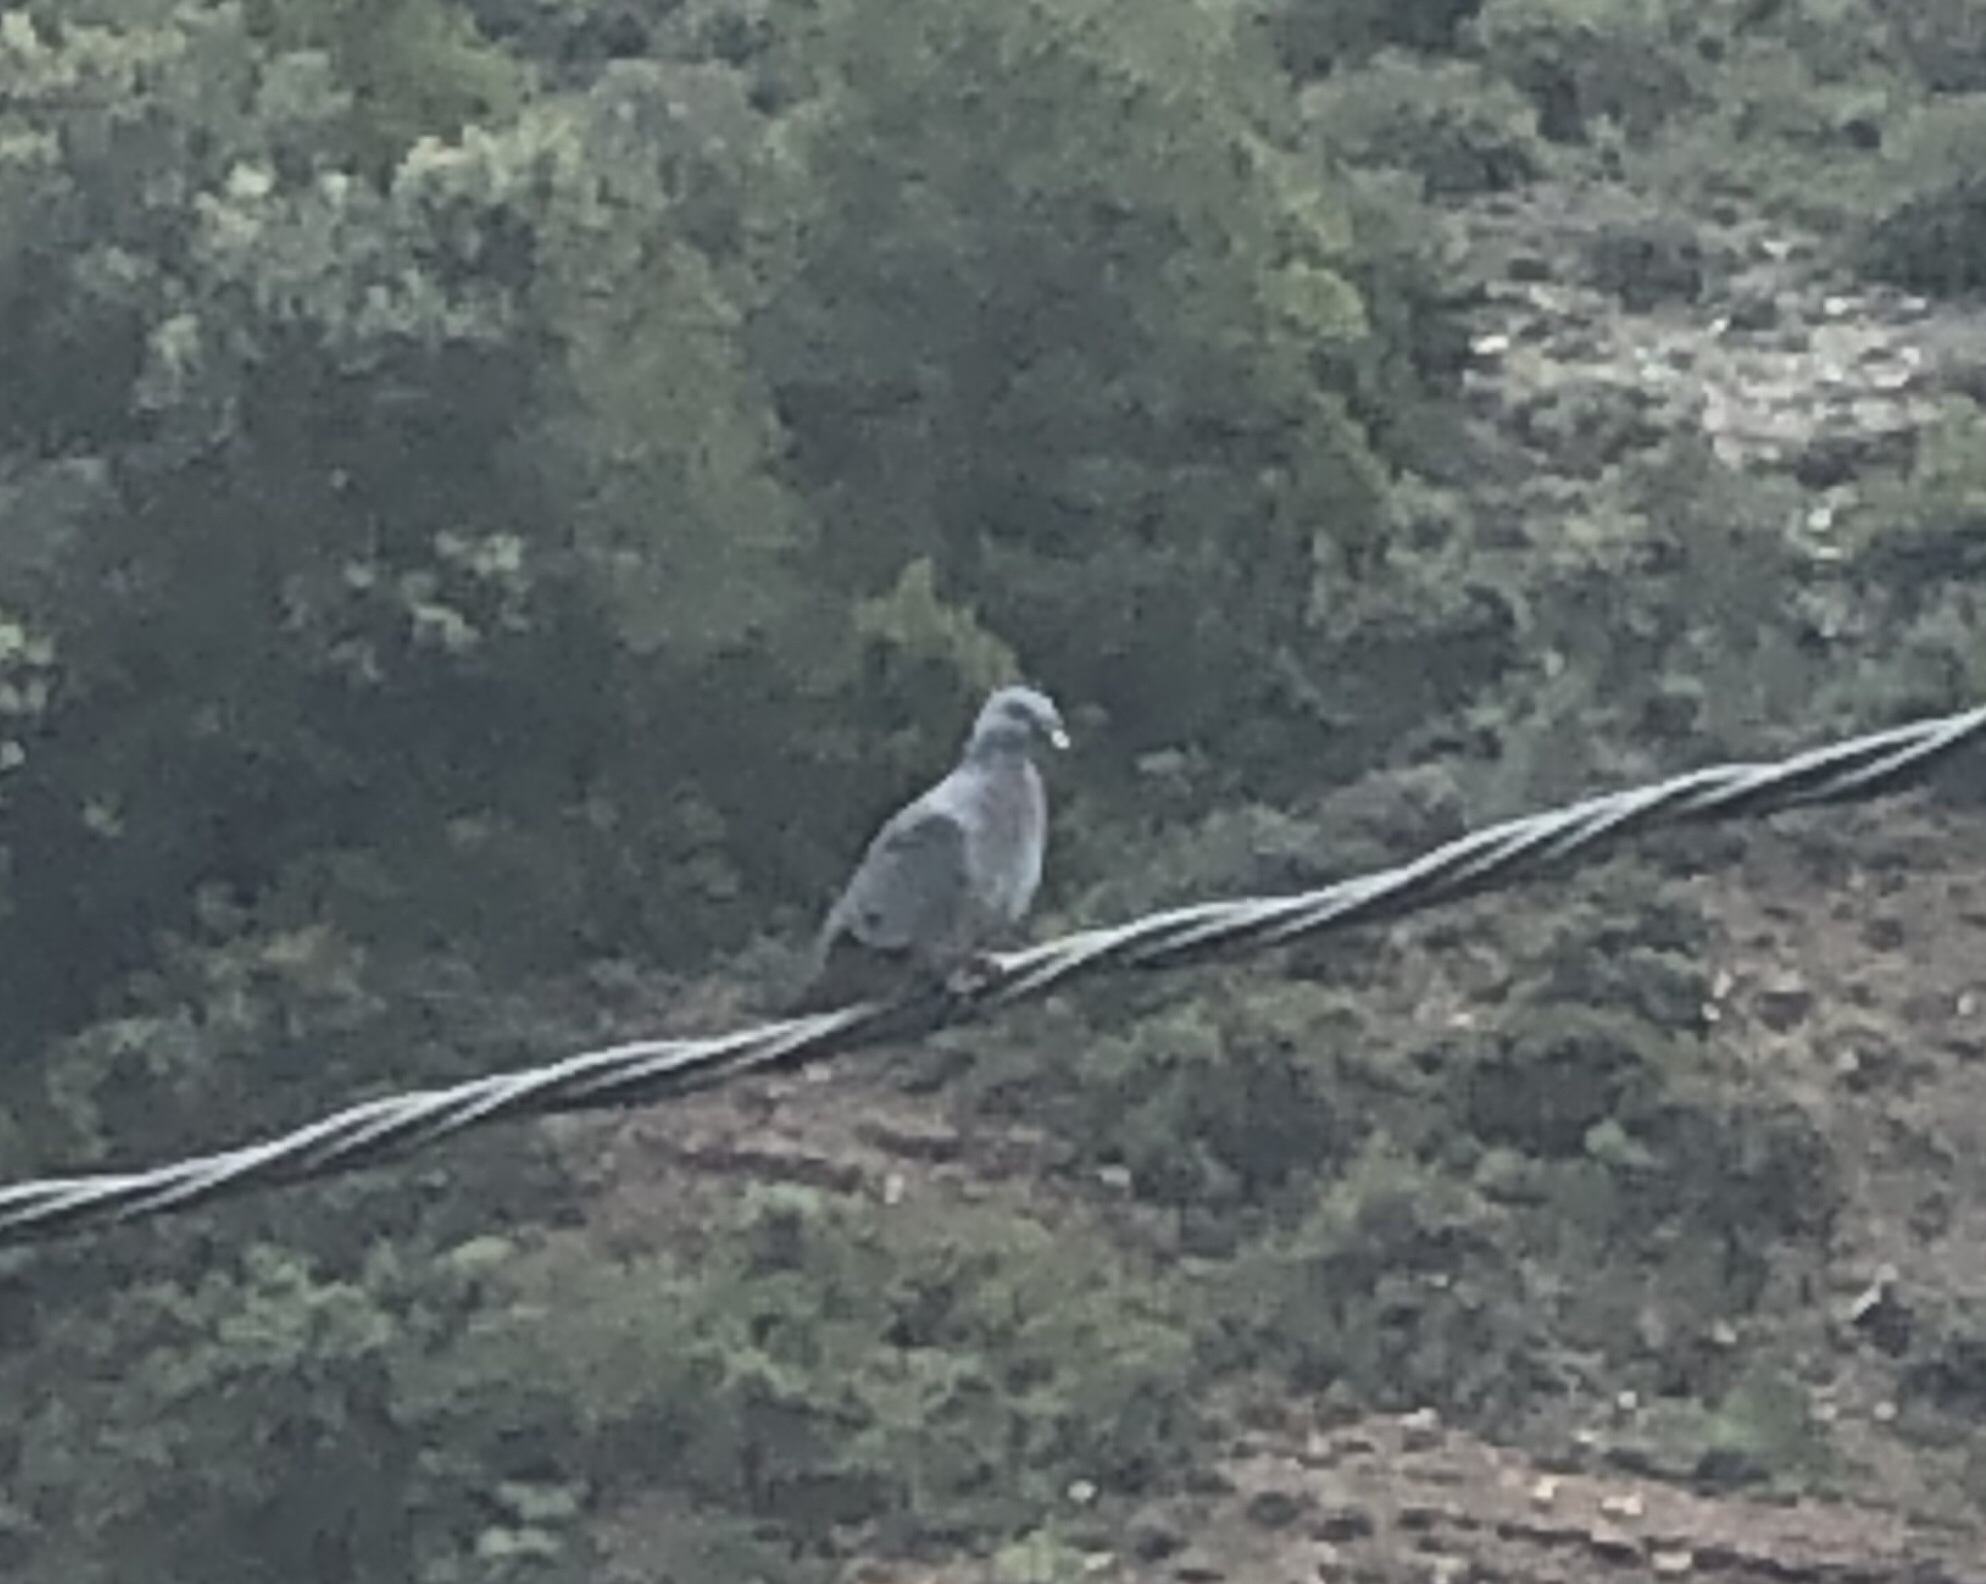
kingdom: Animalia
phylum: Chordata
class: Aves
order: Columbiformes
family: Columbidae
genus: Columba
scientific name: Columba oenas
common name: Stock dove
